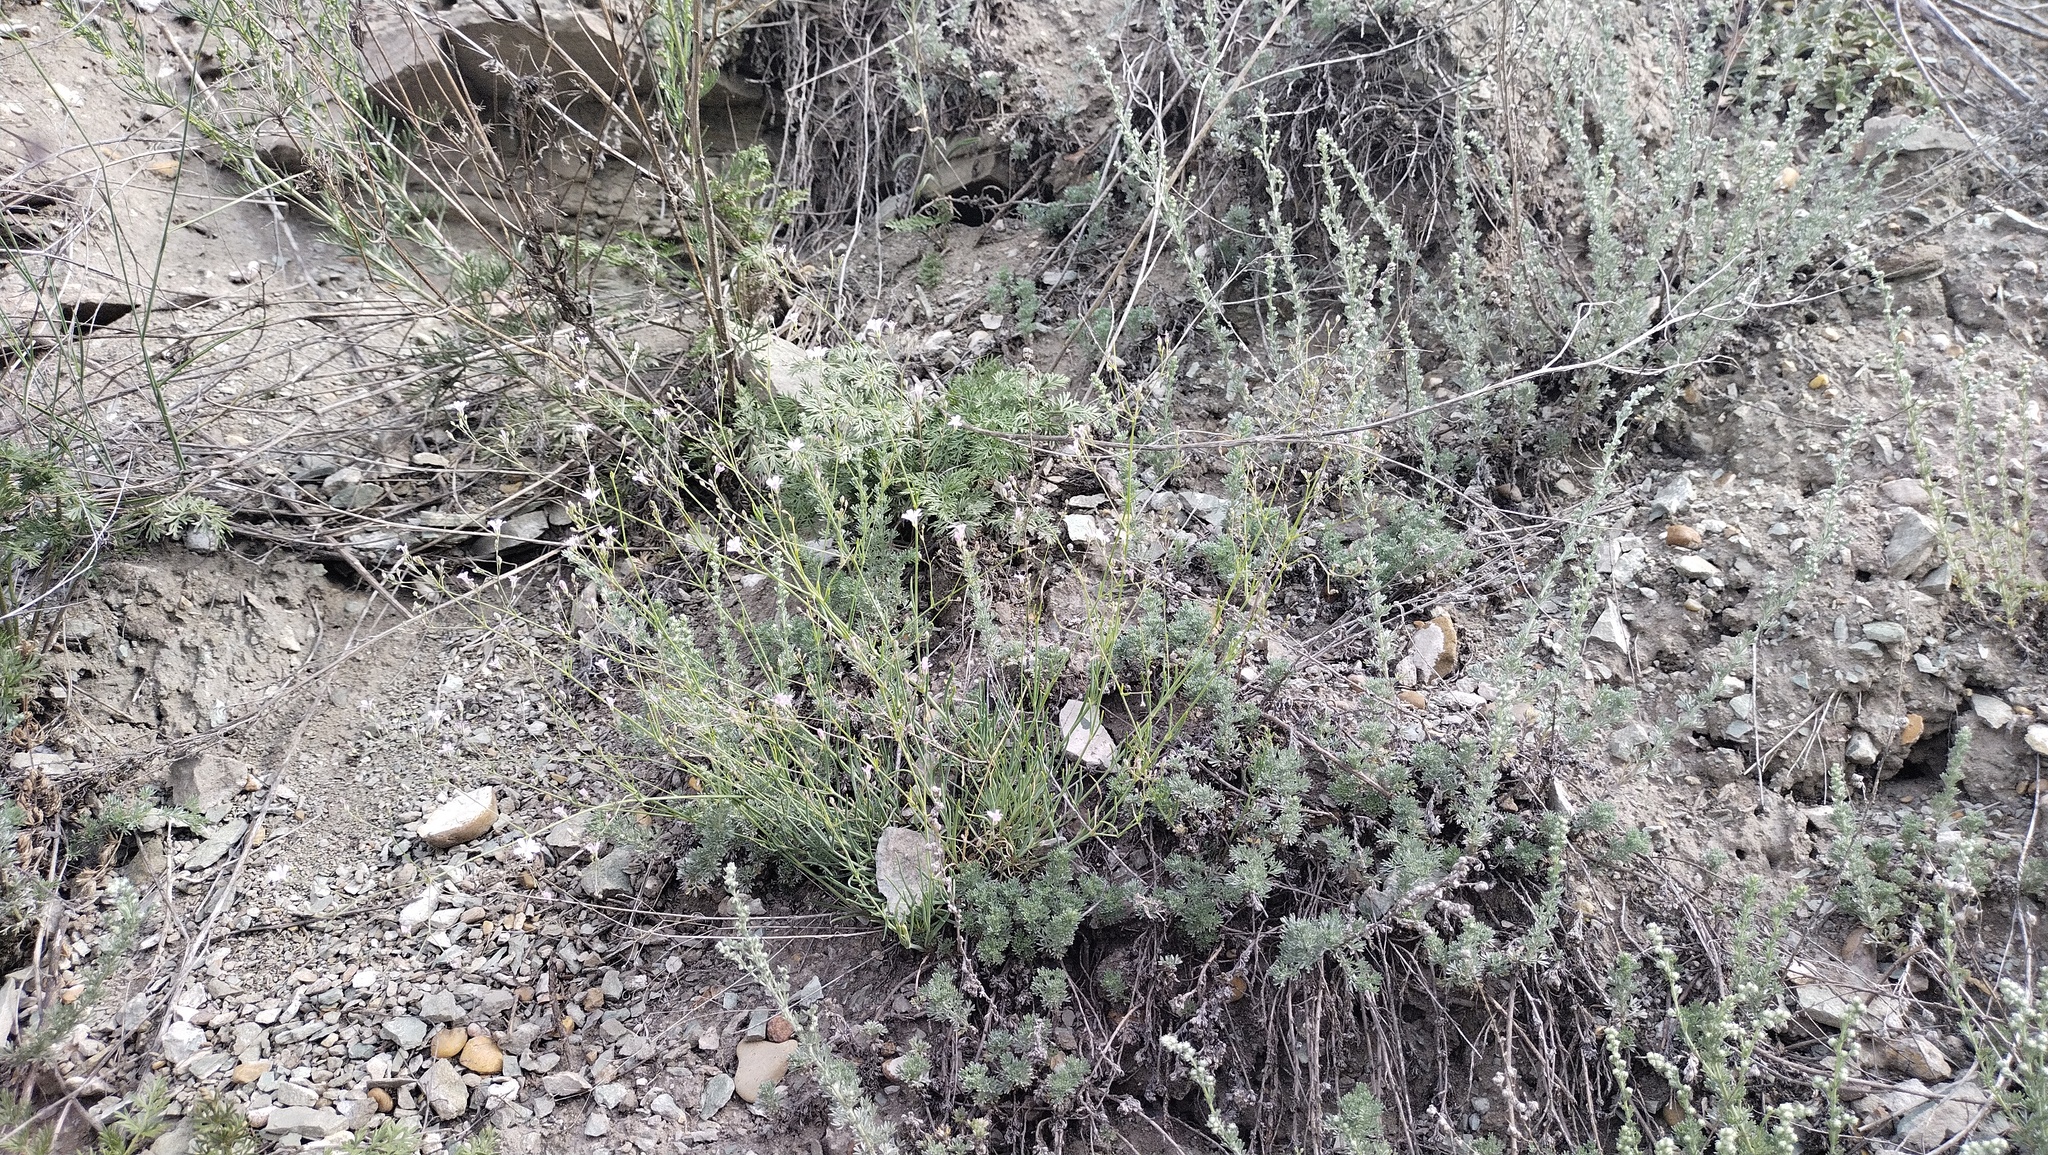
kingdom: Plantae
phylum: Tracheophyta
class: Magnoliopsida
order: Caryophyllales
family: Caryophyllaceae
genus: Gypsophila
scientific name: Gypsophila patrinii
